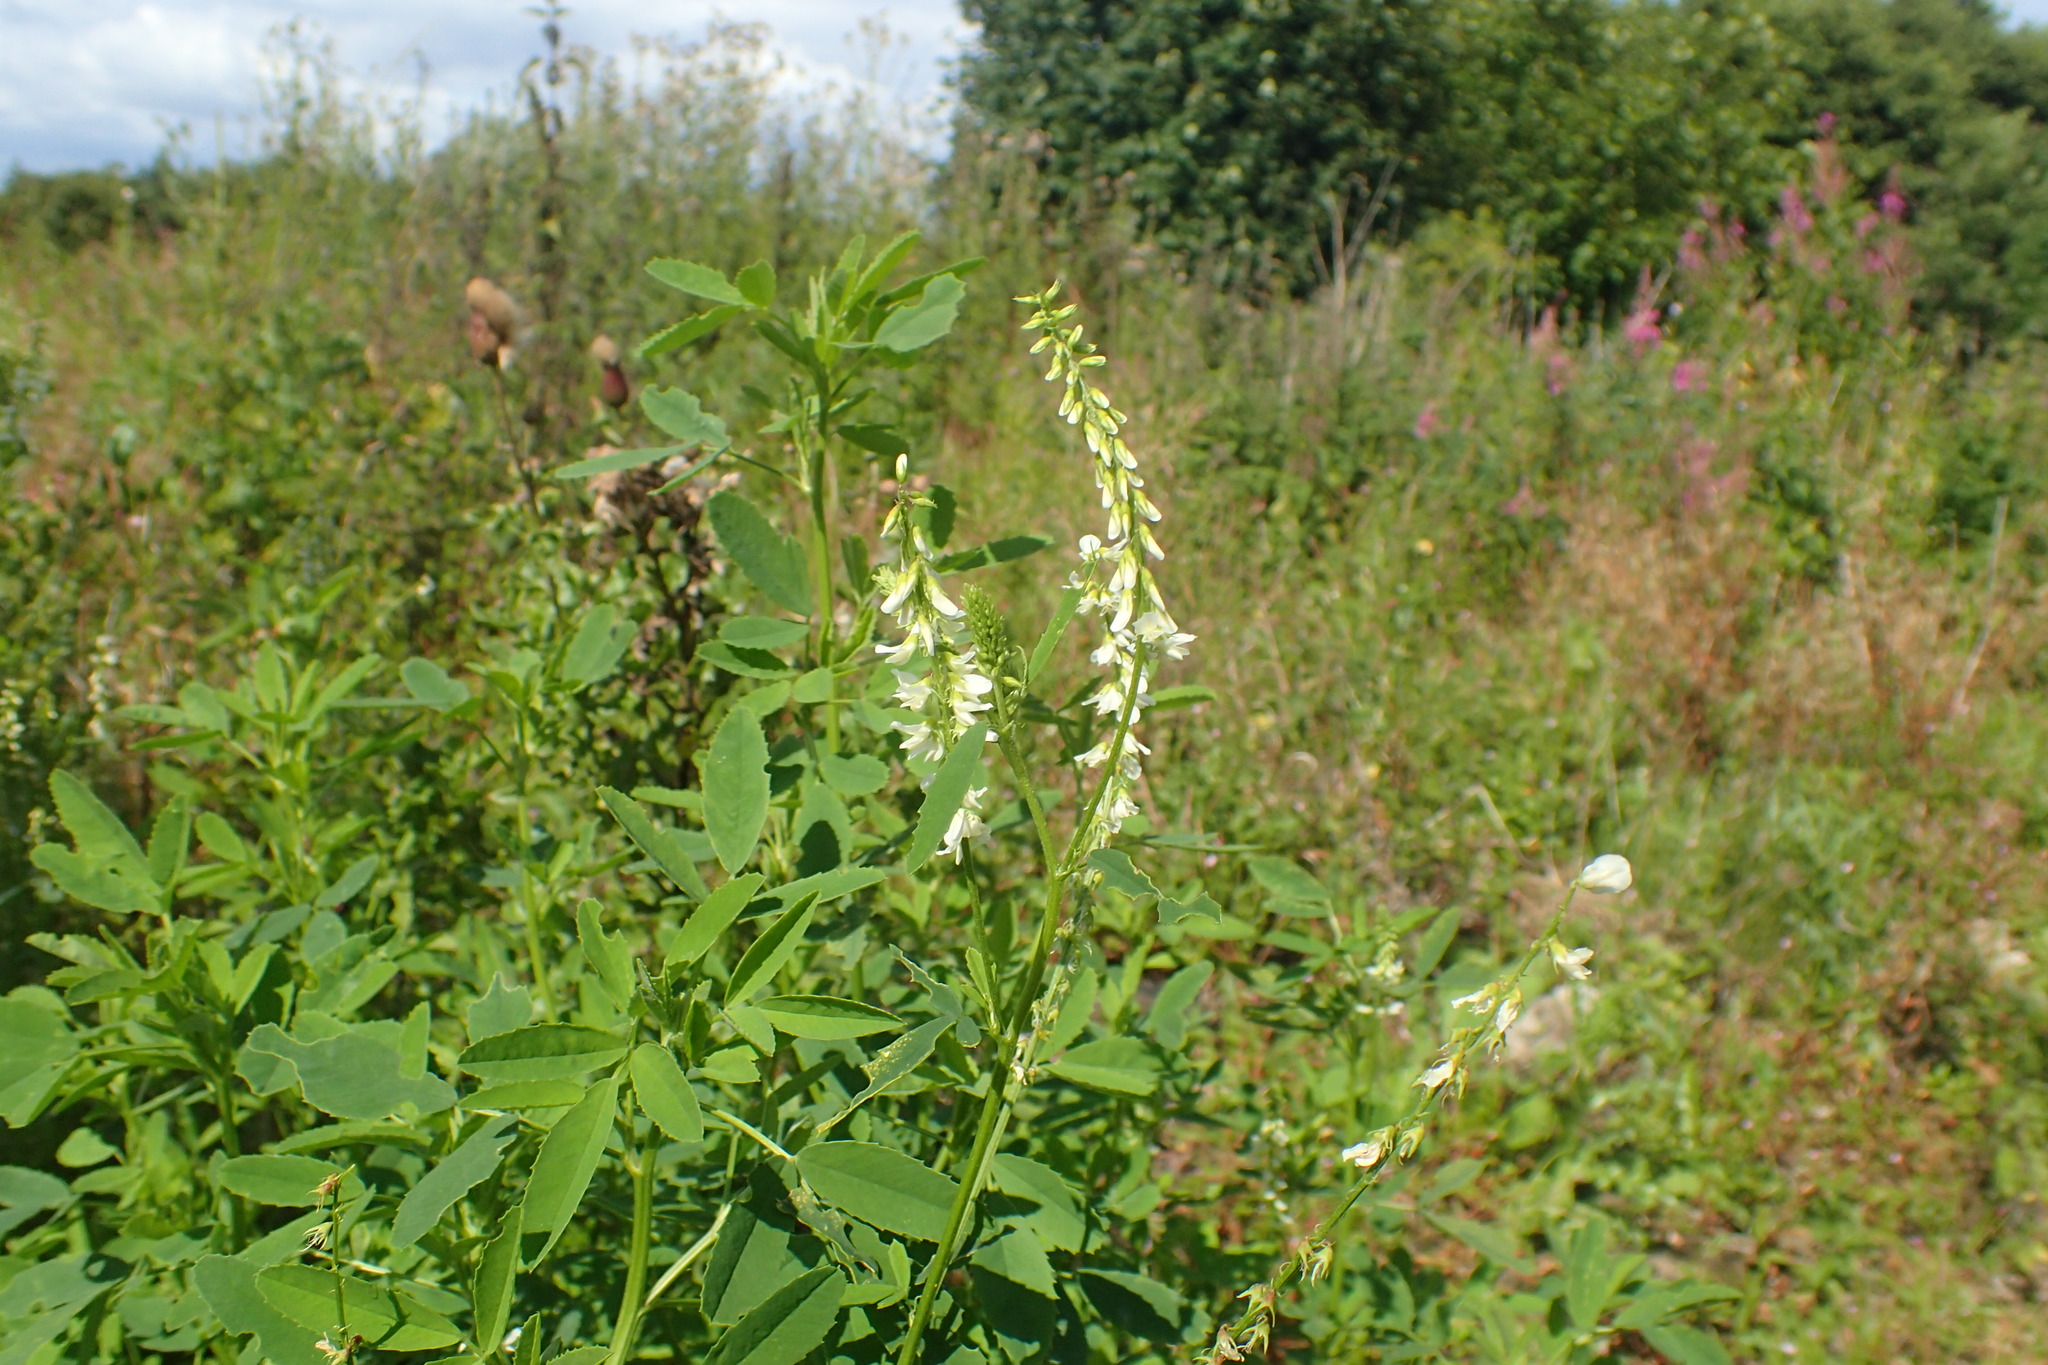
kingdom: Plantae
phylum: Tracheophyta
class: Magnoliopsida
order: Fabales
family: Fabaceae
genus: Melilotus
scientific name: Melilotus albus
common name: White melilot
